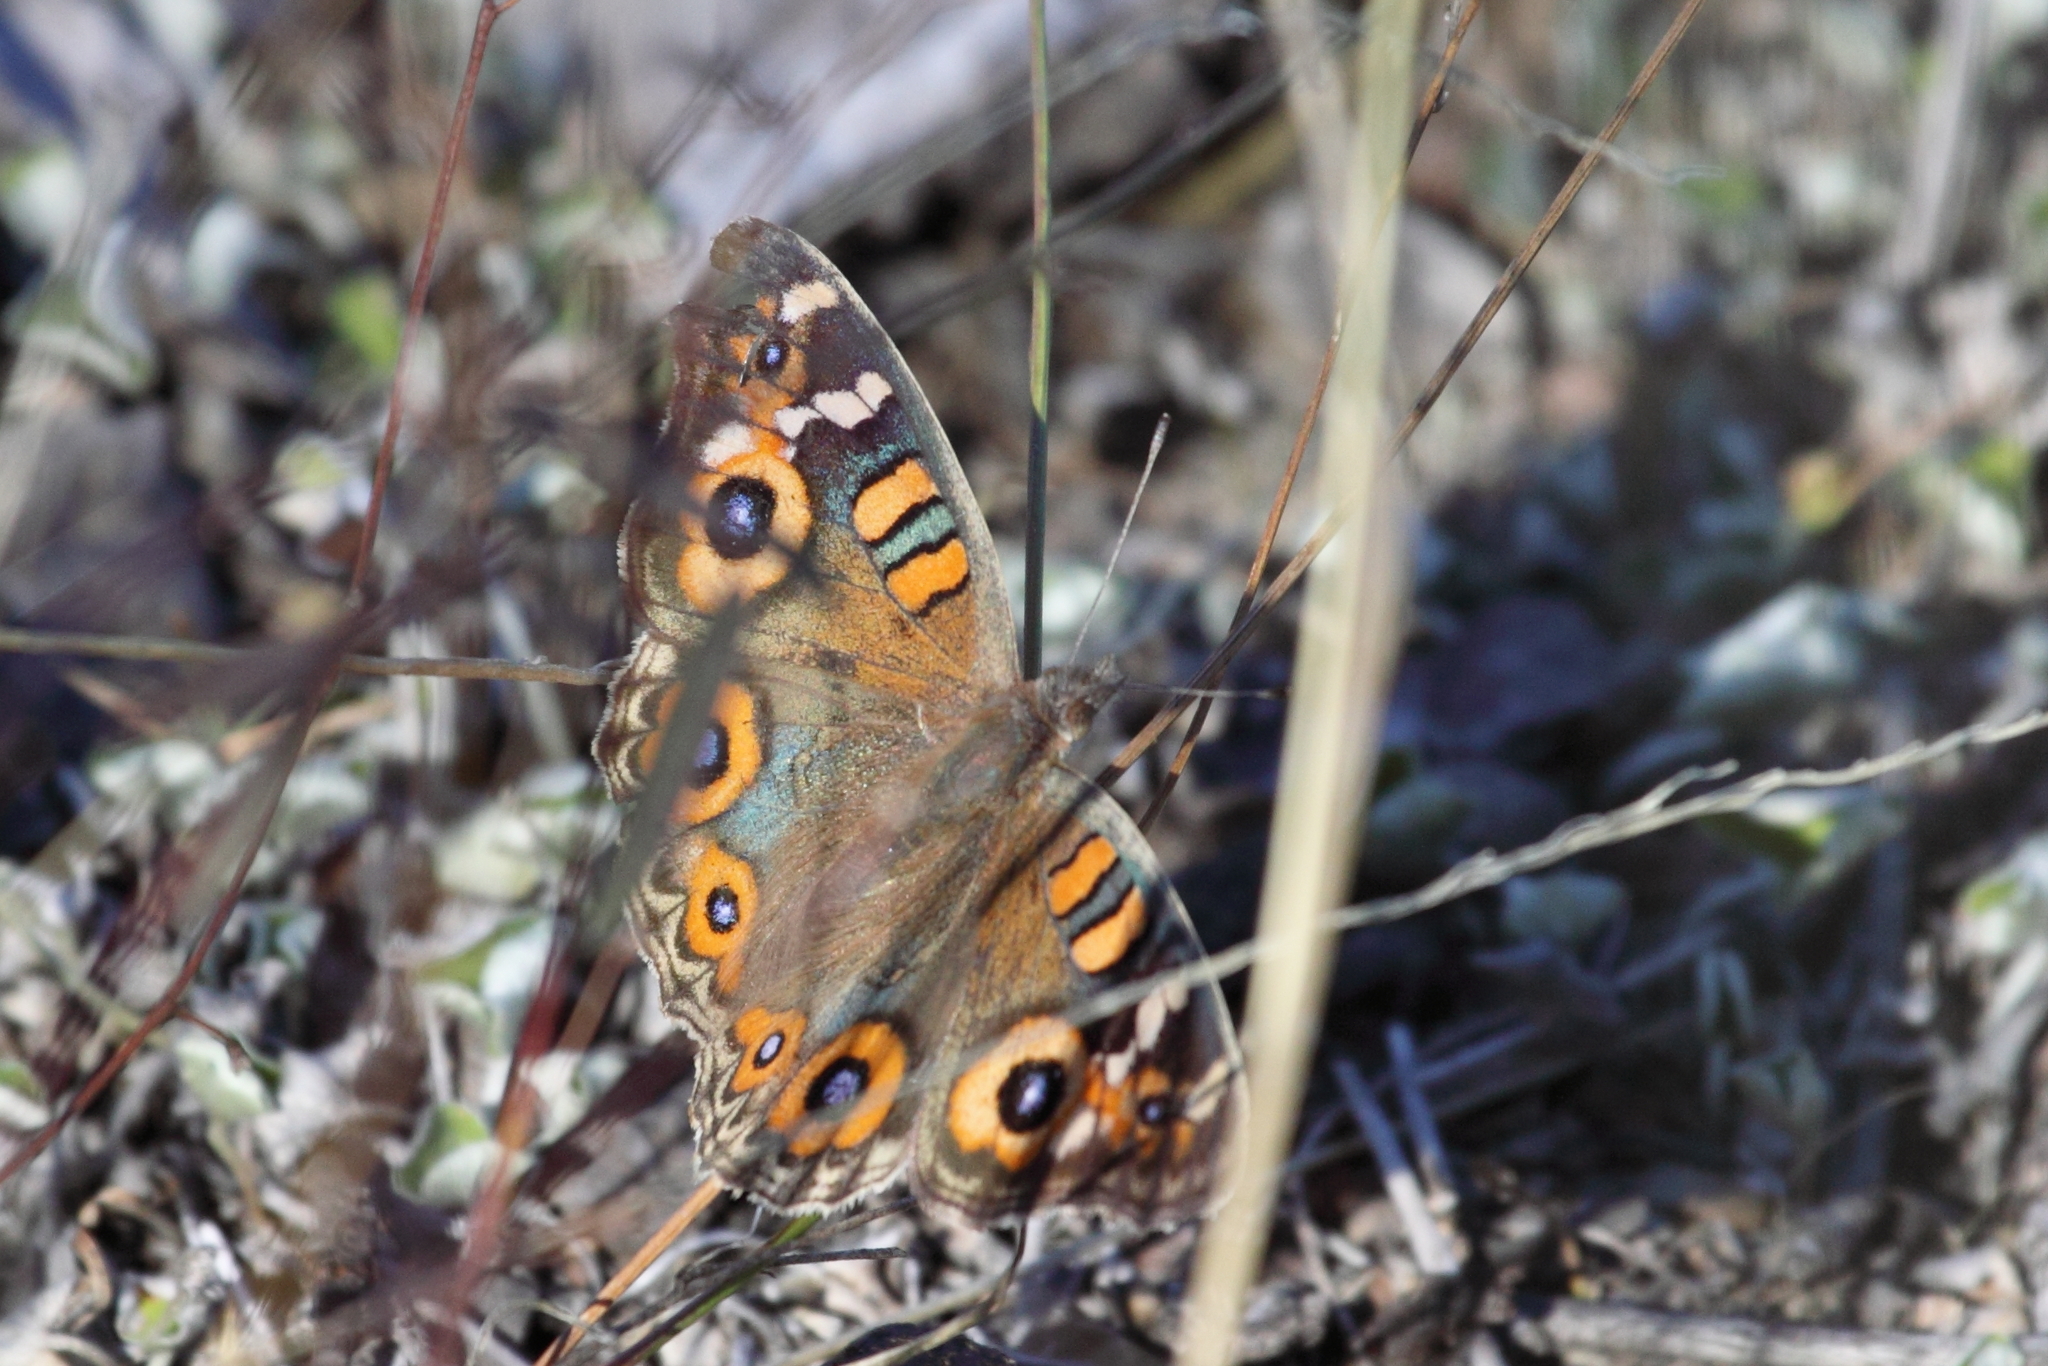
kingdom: Animalia
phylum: Arthropoda
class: Insecta
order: Lepidoptera
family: Nymphalidae
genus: Junonia
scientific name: Junonia villida
